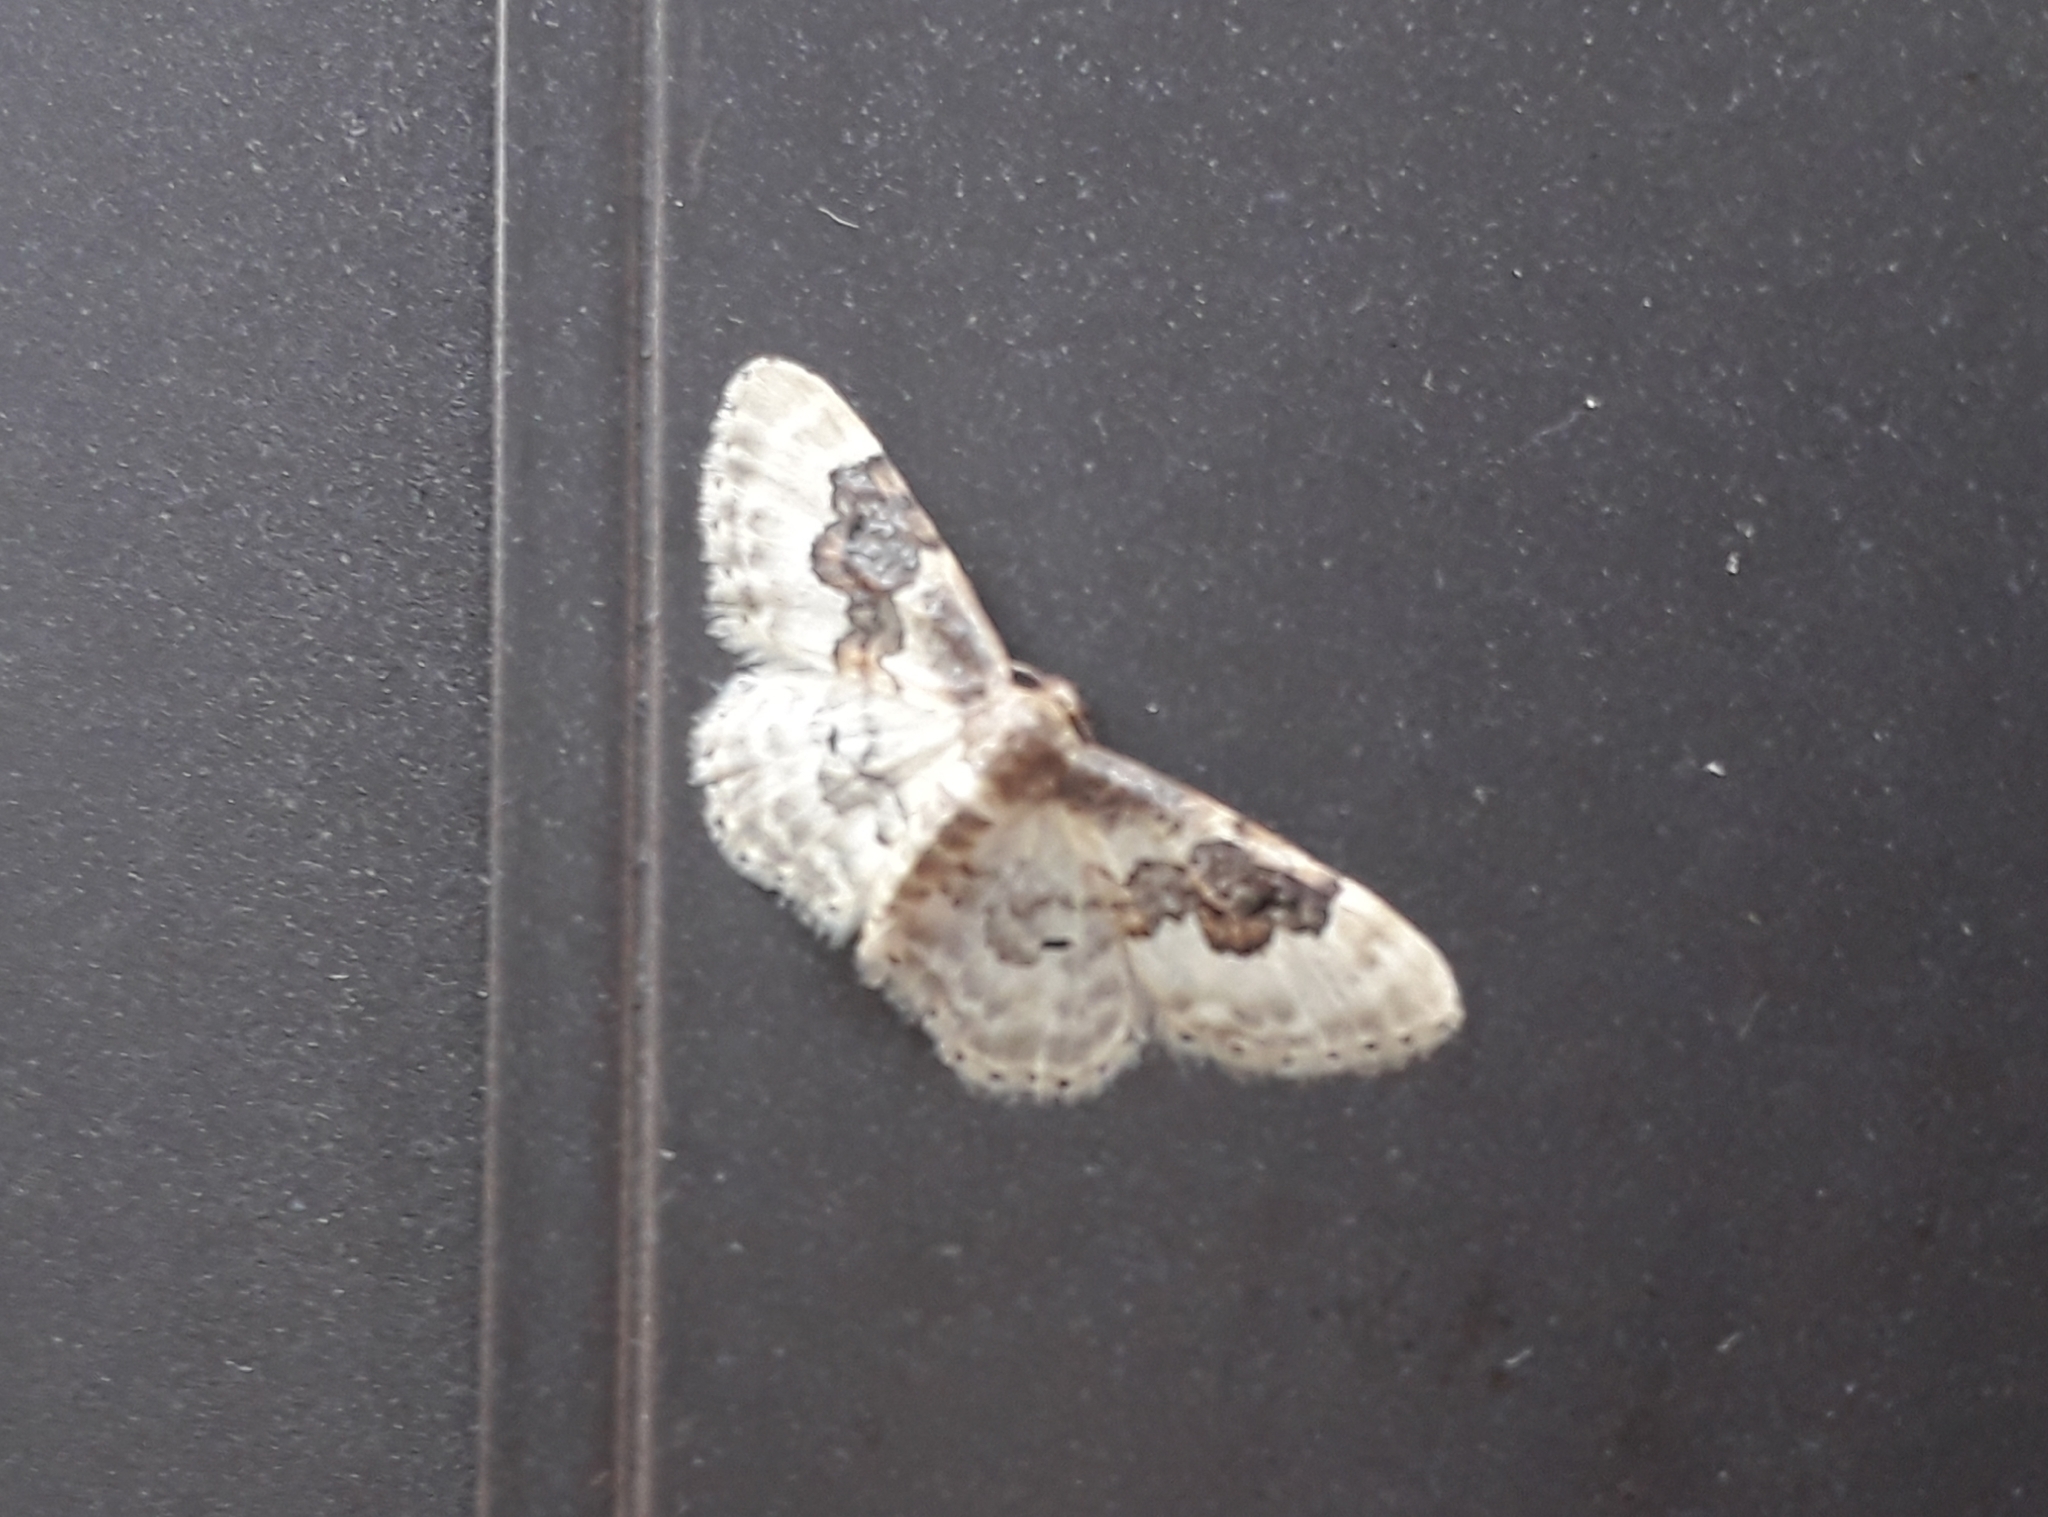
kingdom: Animalia
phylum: Arthropoda
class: Insecta
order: Lepidoptera
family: Geometridae
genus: Idaea
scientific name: Idaea rusticata
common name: Least carpet
